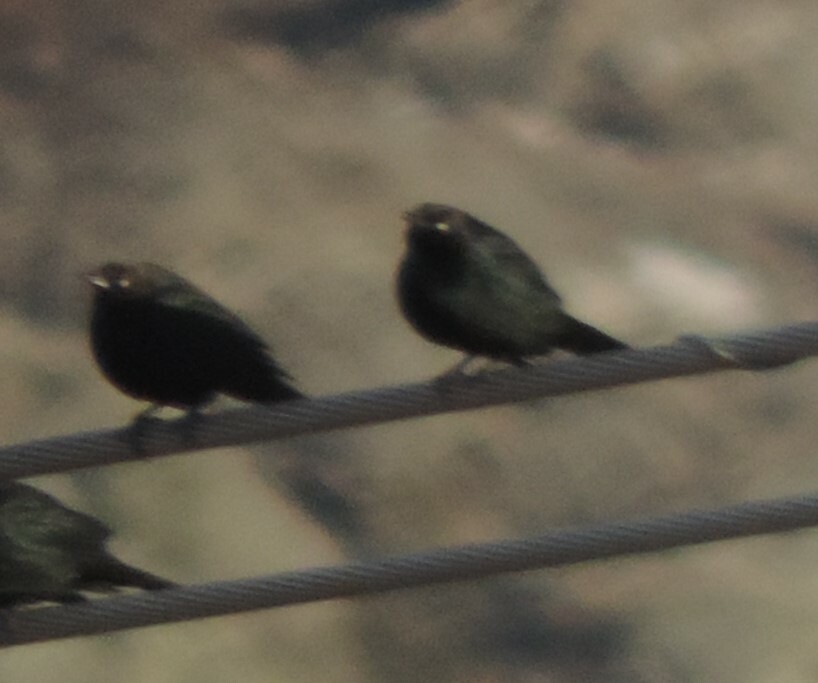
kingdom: Animalia
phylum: Chordata
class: Aves
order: Passeriformes
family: Icteridae
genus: Euphagus
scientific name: Euphagus cyanocephalus
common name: Brewer's blackbird
